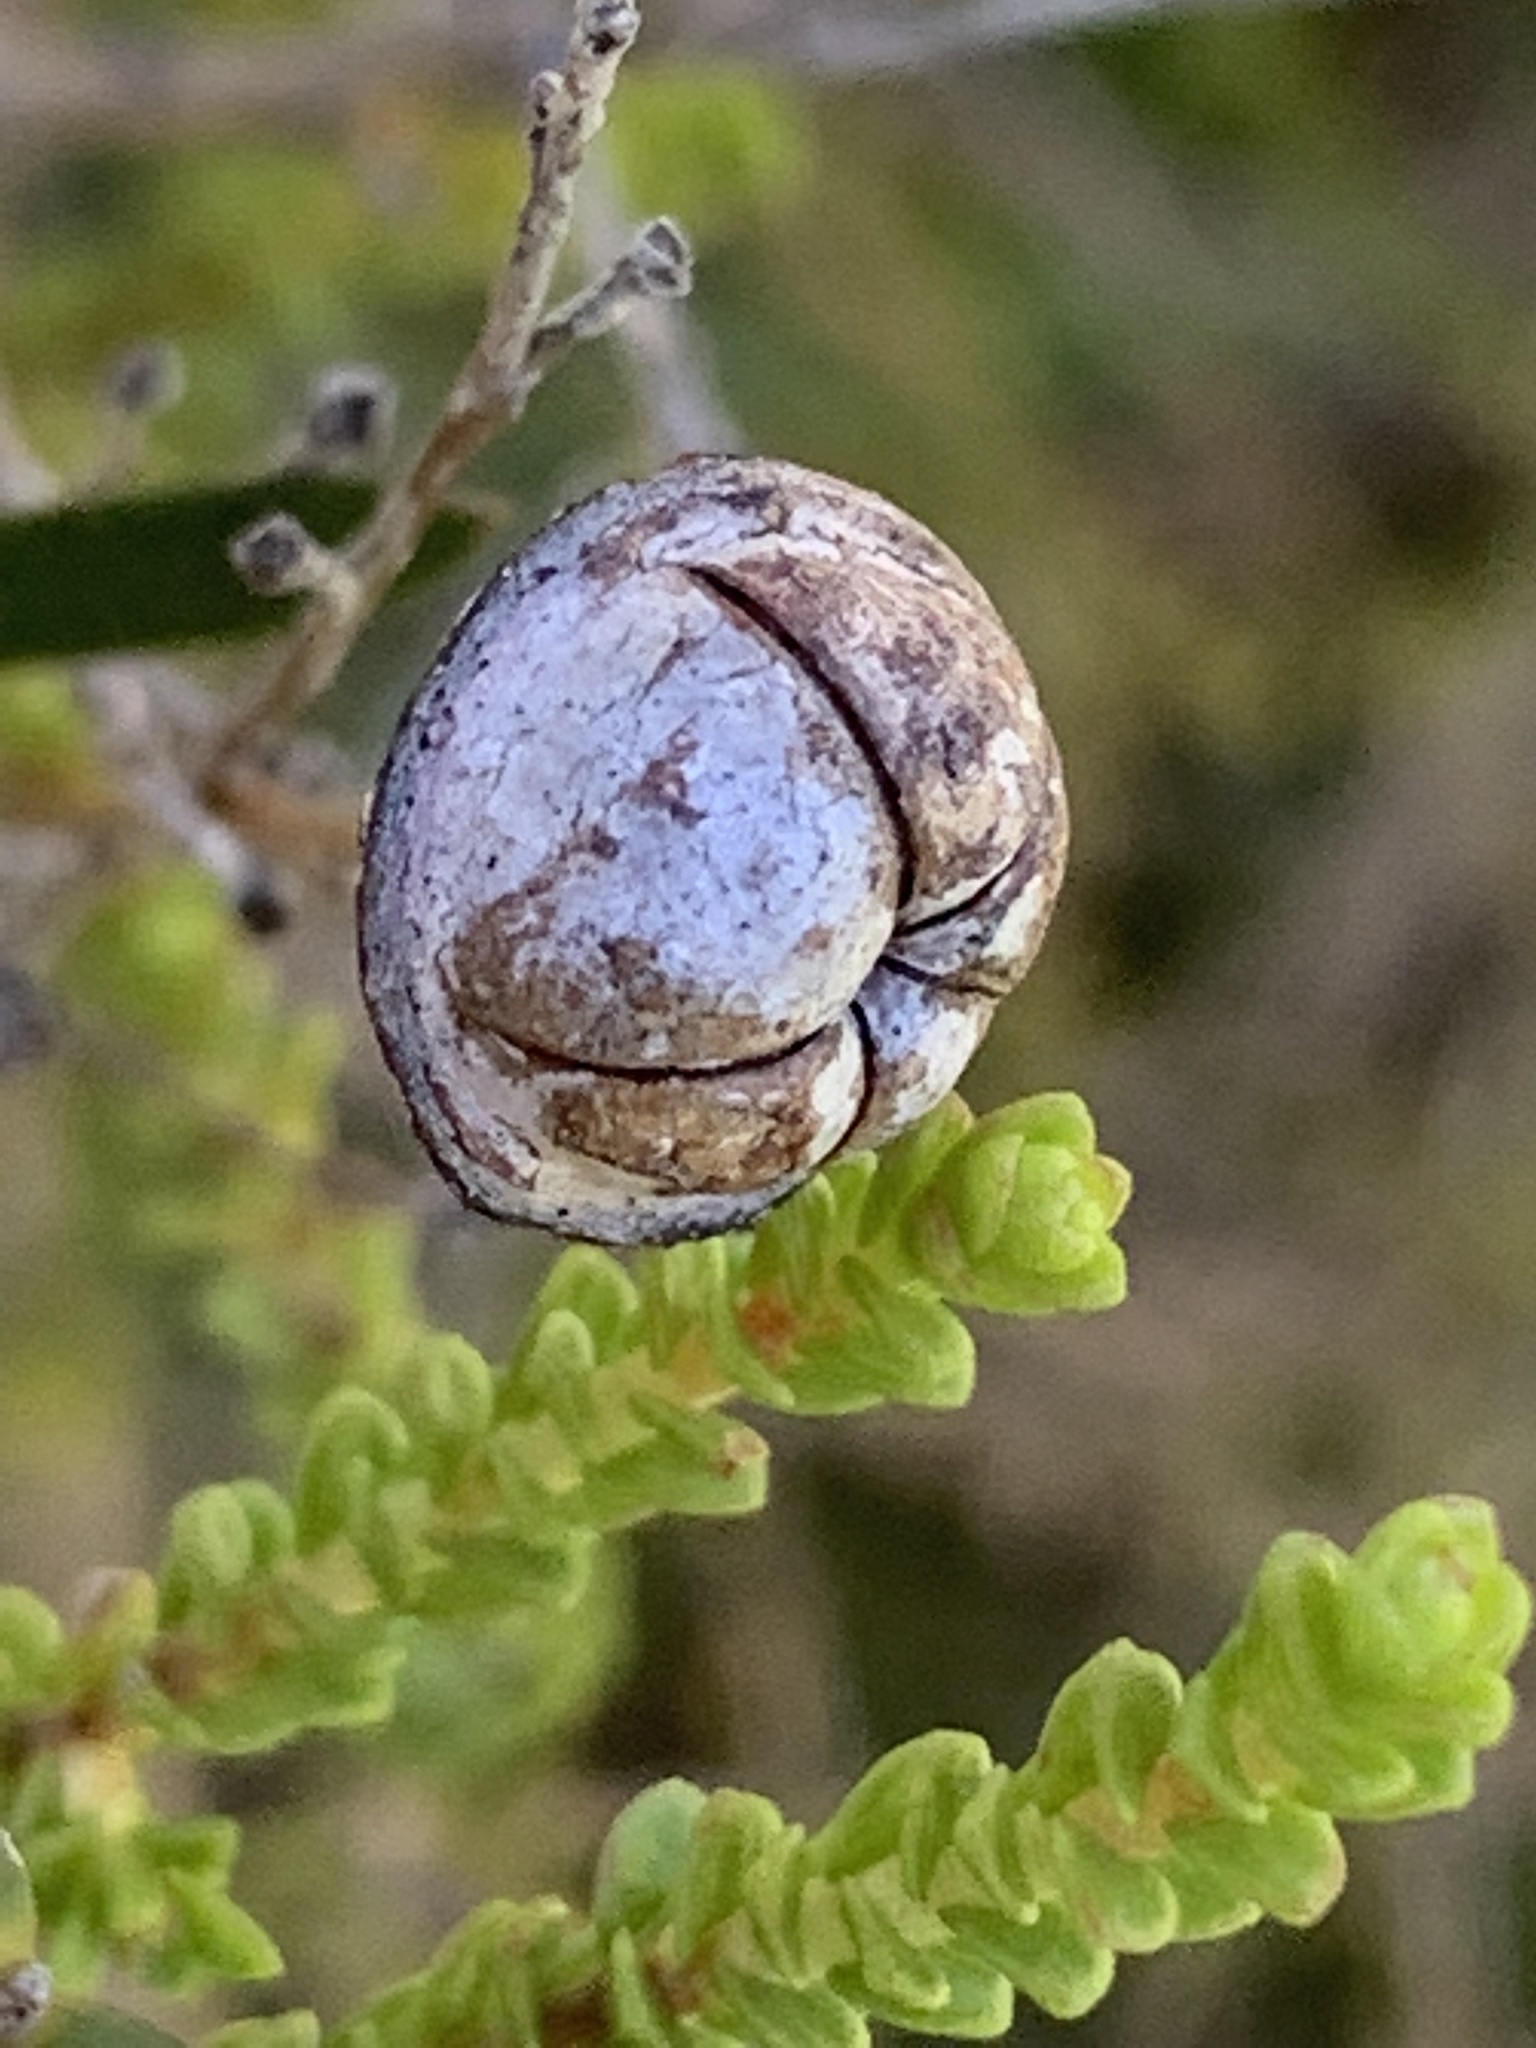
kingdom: Plantae
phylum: Tracheophyta
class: Magnoliopsida
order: Myrtales
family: Myrtaceae
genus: Leptospermum
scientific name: Leptospermum epacridoideum
